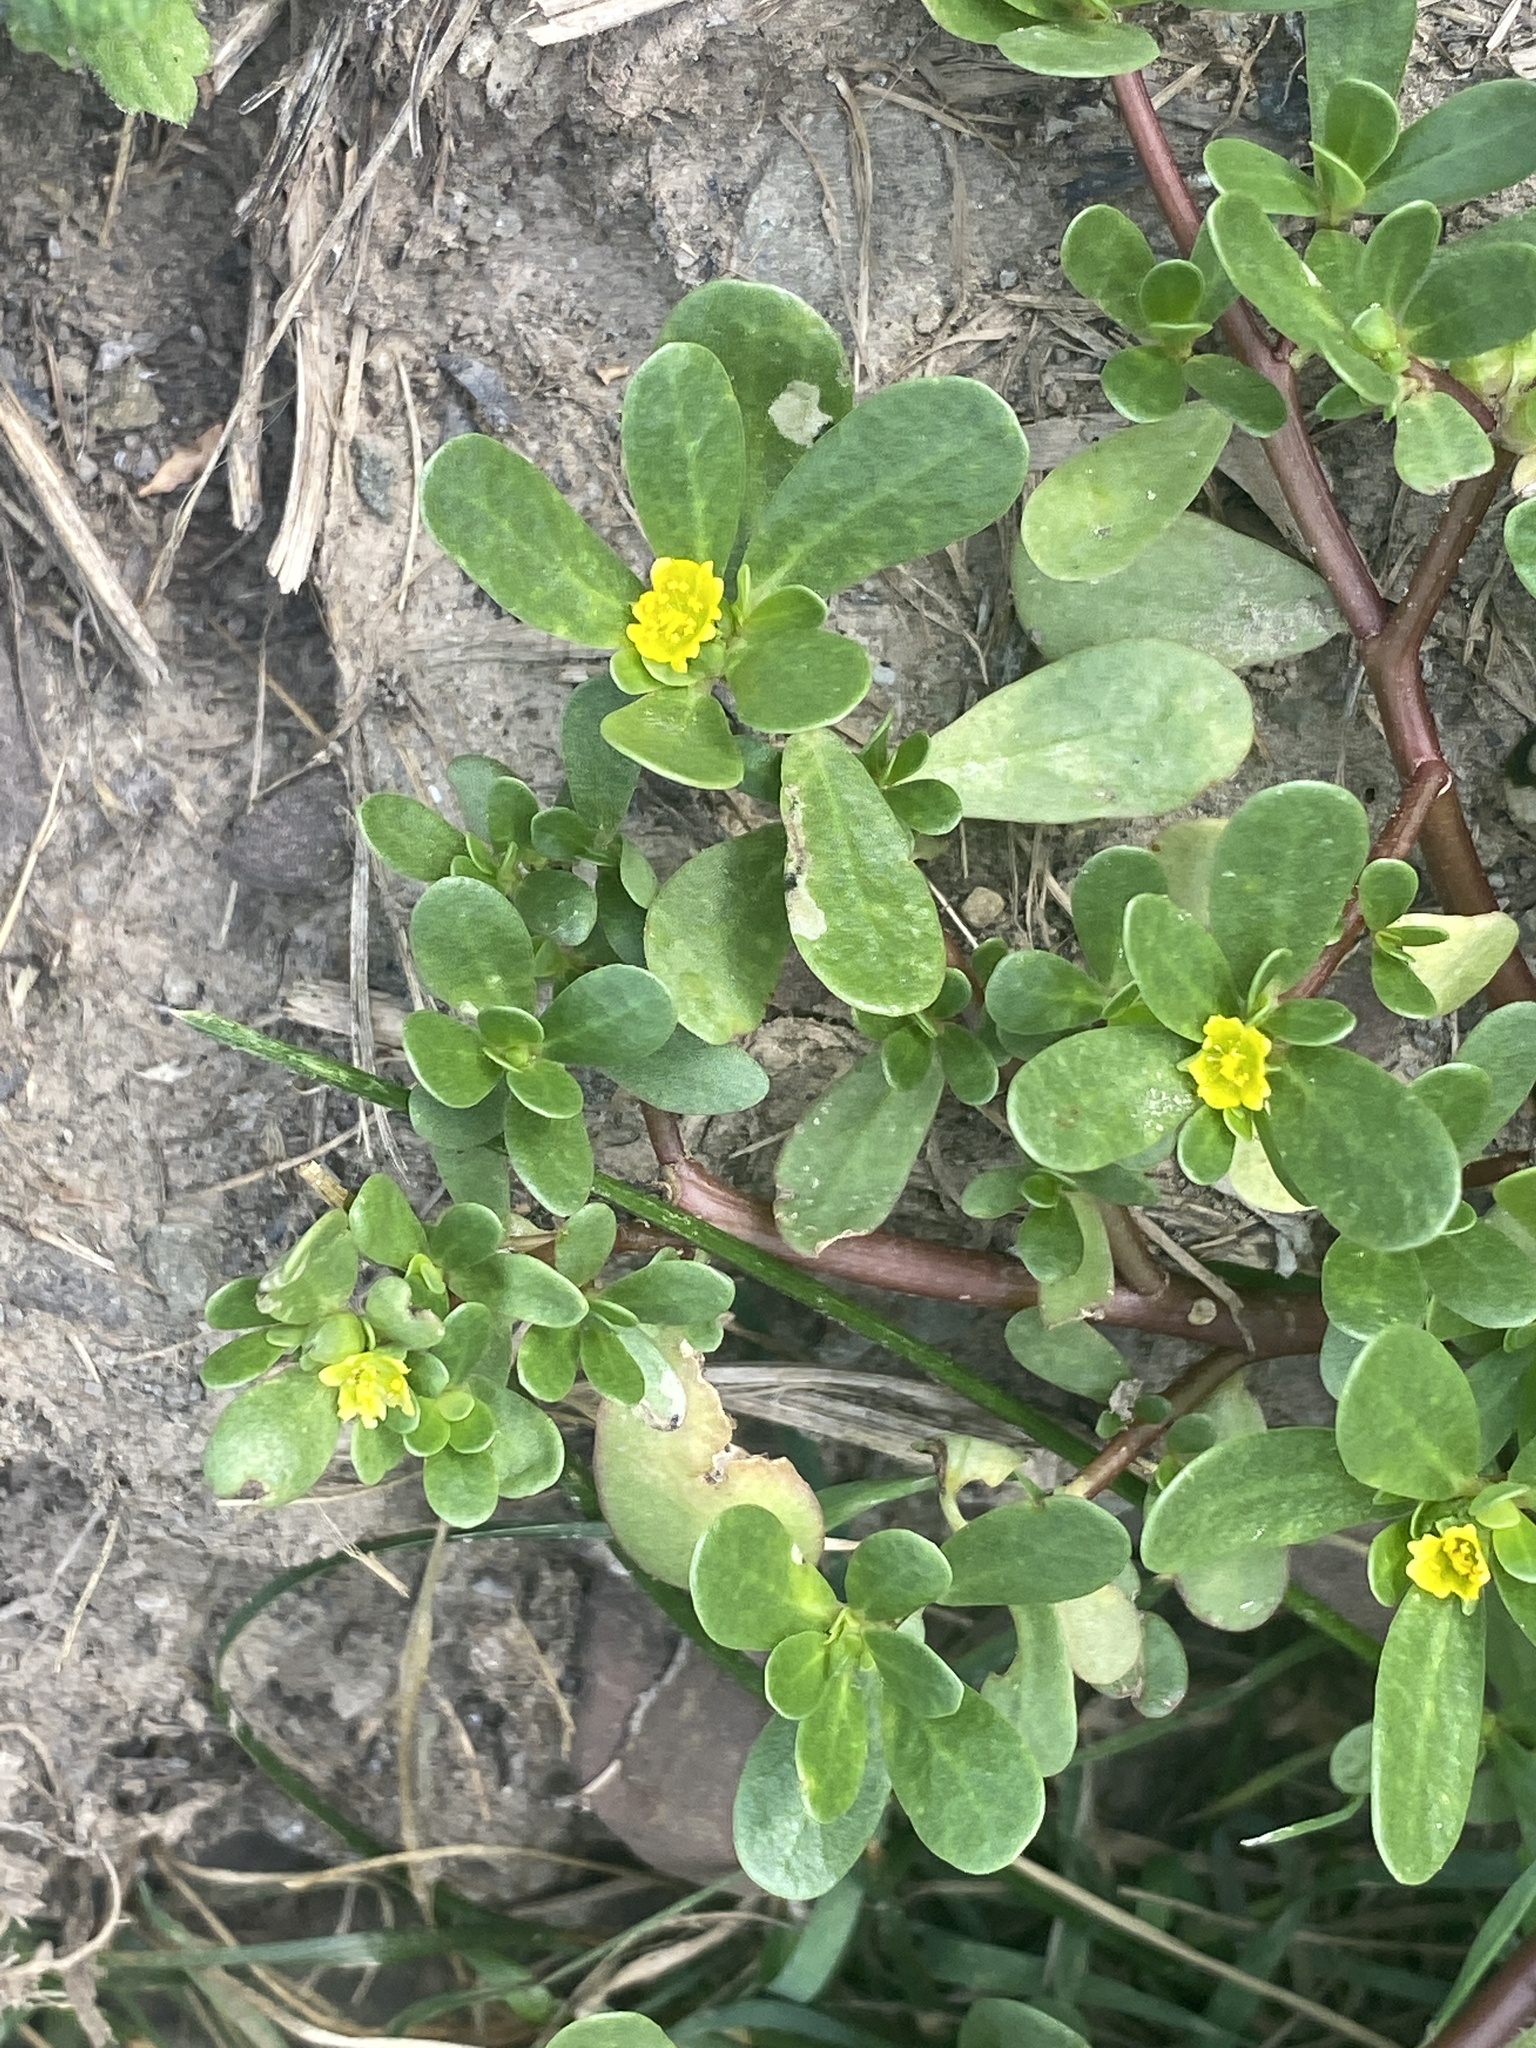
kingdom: Plantae
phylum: Tracheophyta
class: Magnoliopsida
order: Caryophyllales
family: Portulacaceae
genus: Portulaca
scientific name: Portulaca oleracea
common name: Common purslane
